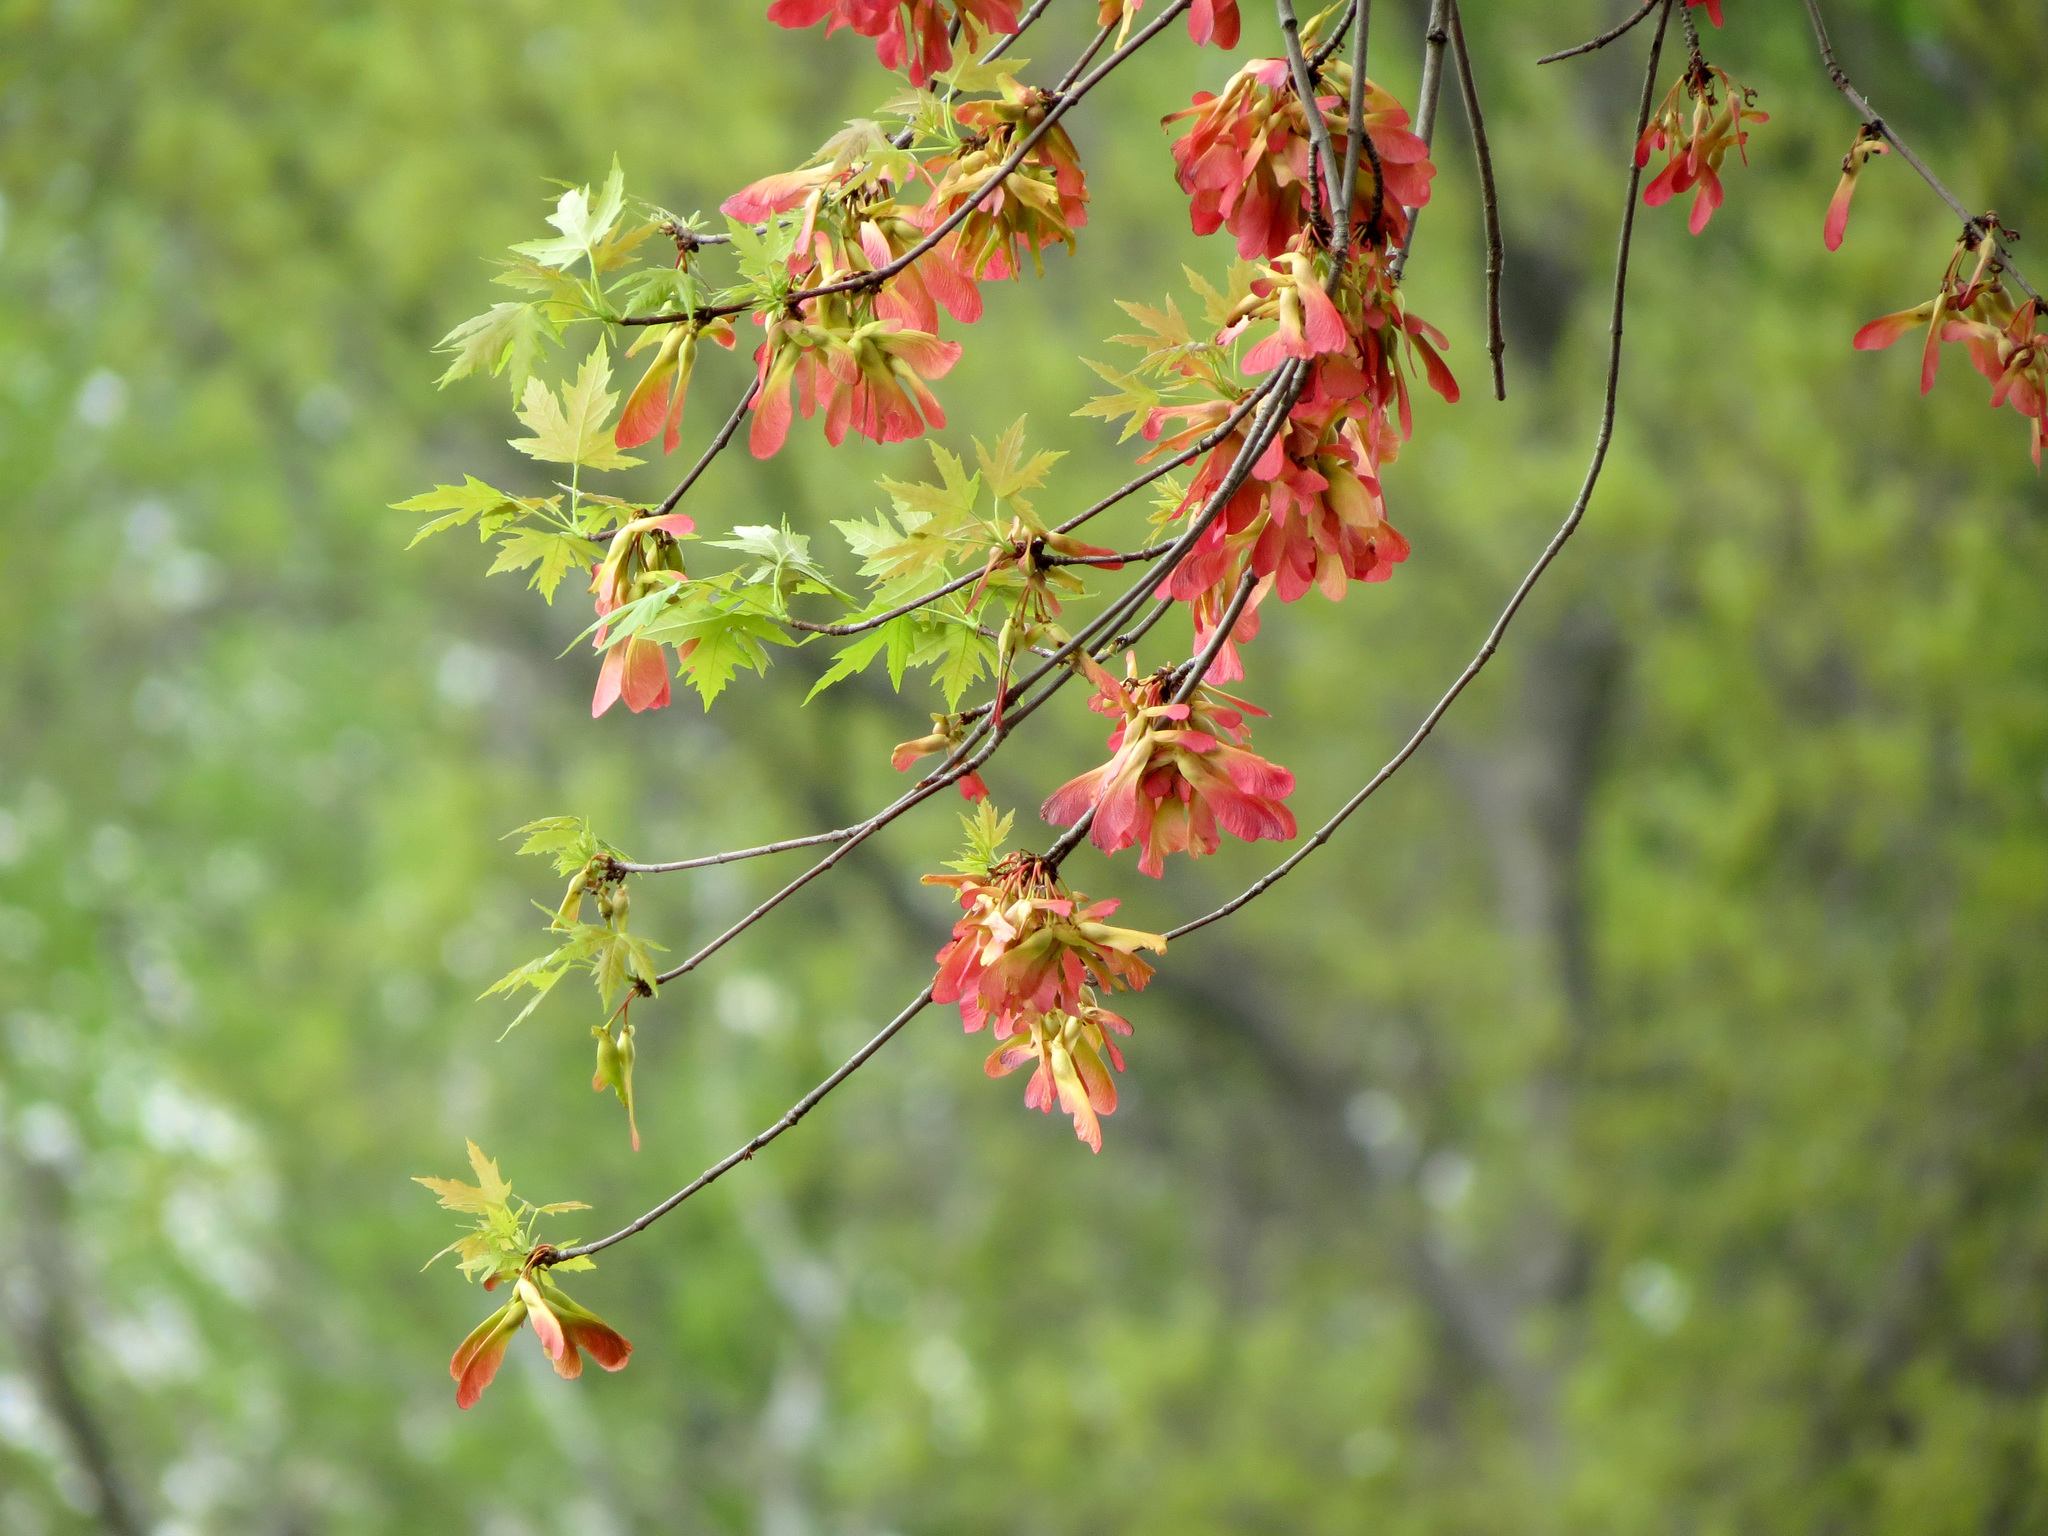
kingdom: Plantae
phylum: Tracheophyta
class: Magnoliopsida
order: Sapindales
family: Sapindaceae
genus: Acer
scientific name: Acer saccharinum
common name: Silver maple
